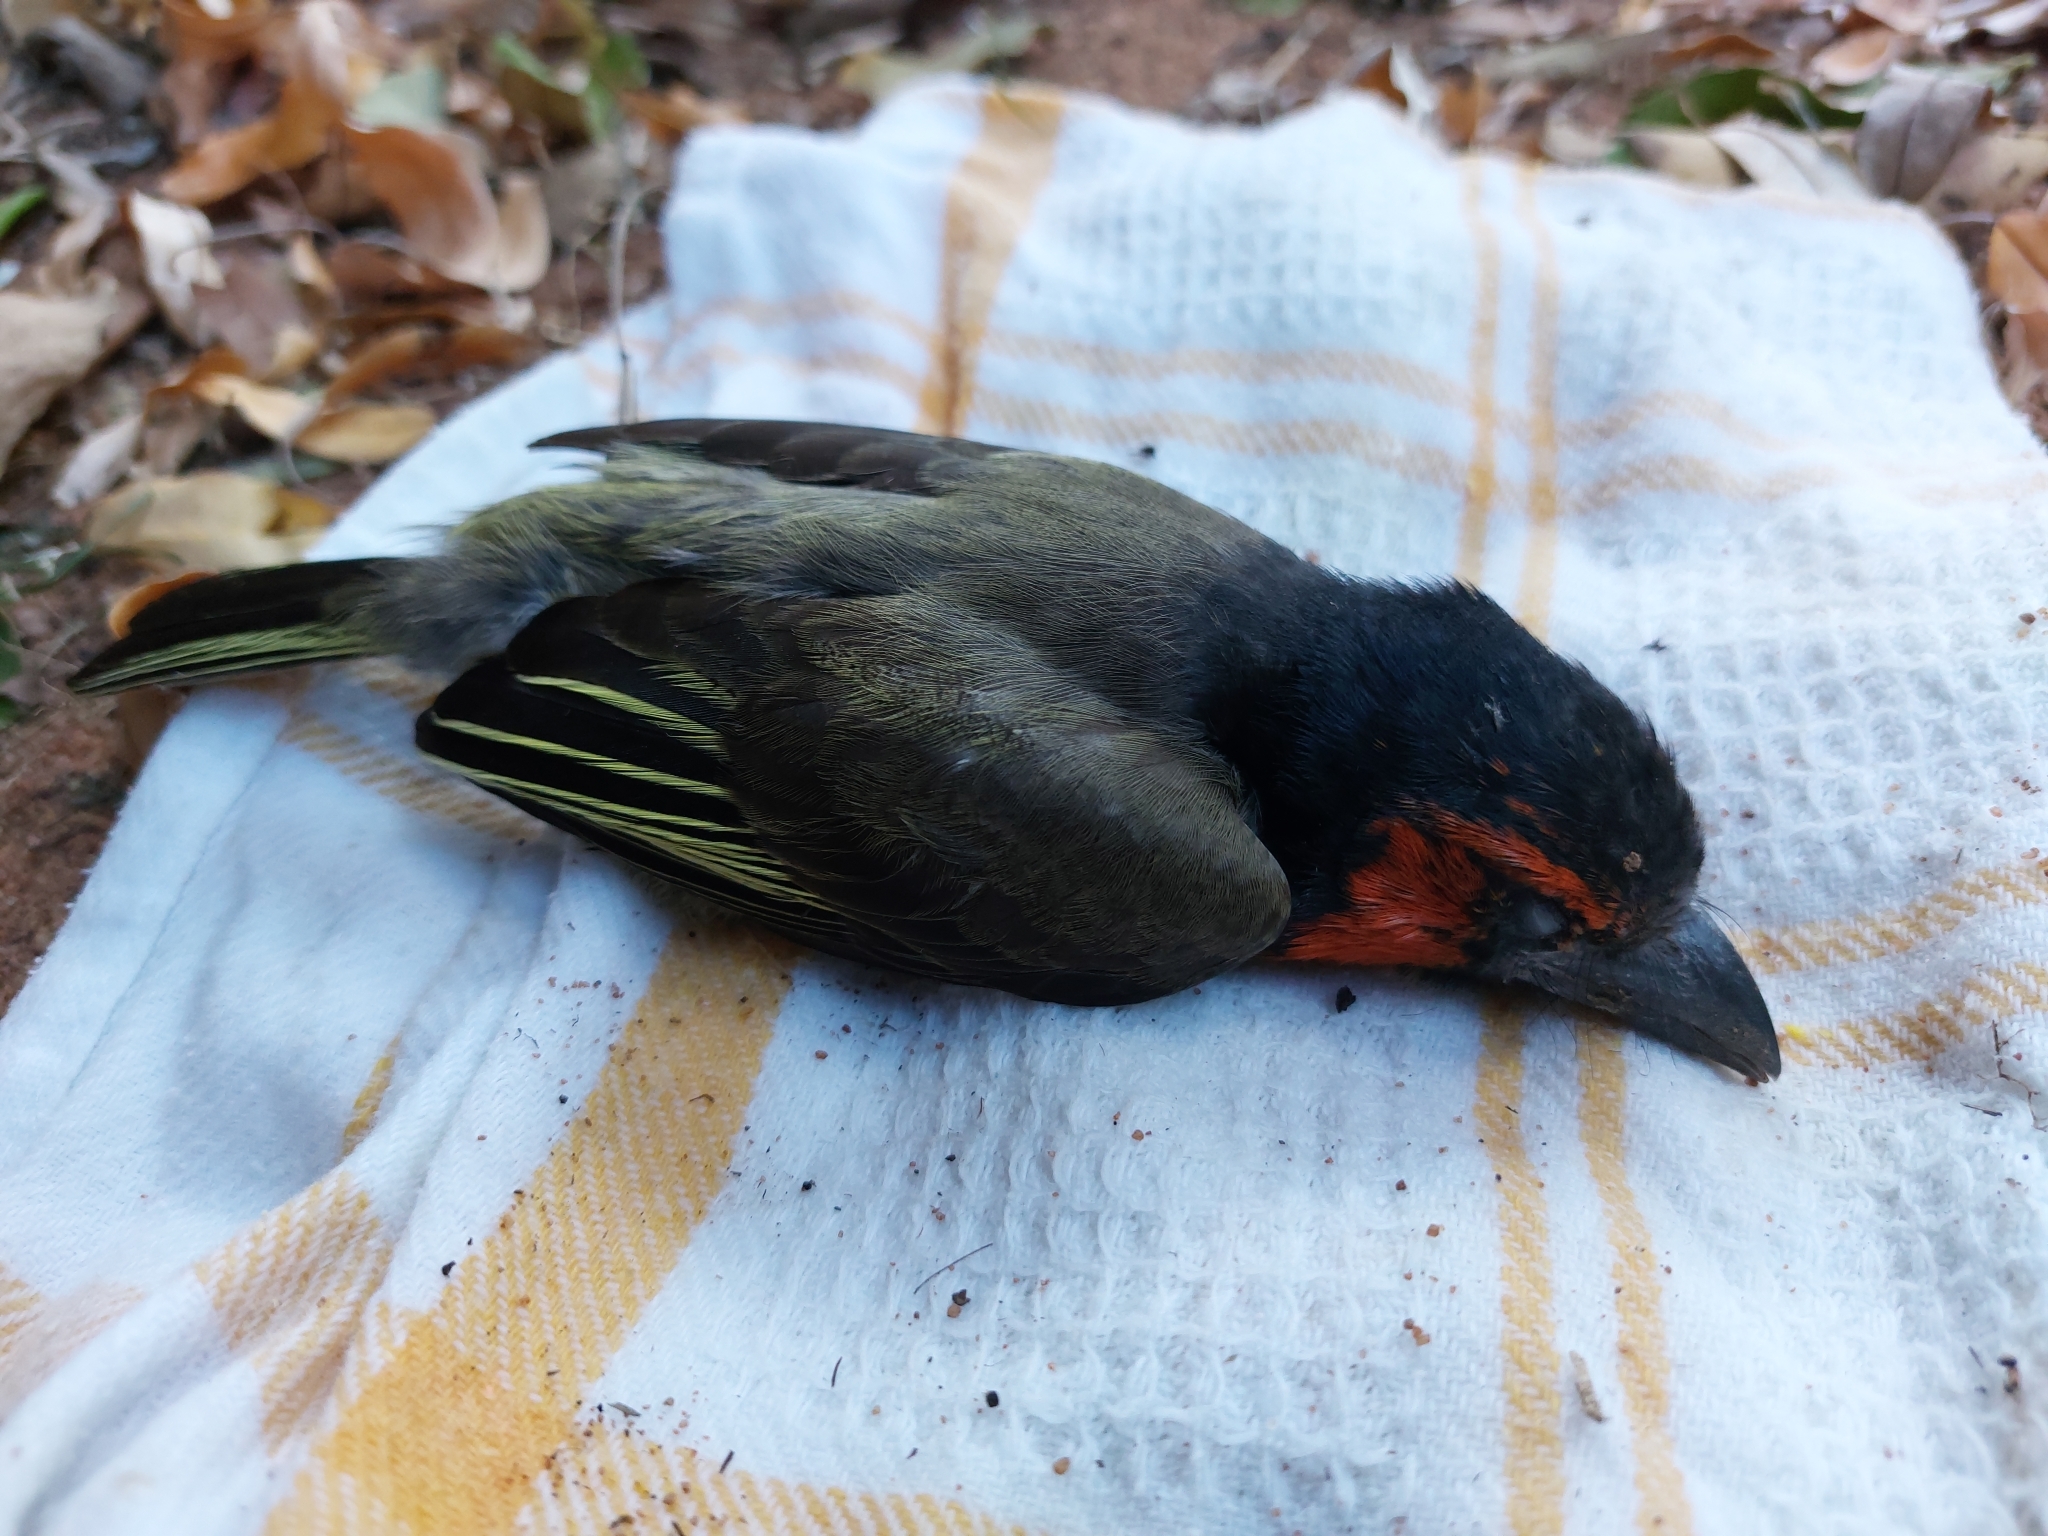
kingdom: Animalia
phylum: Chordata
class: Aves
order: Piciformes
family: Lybiidae
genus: Lybius
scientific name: Lybius torquatus
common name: Black-collared barbet
